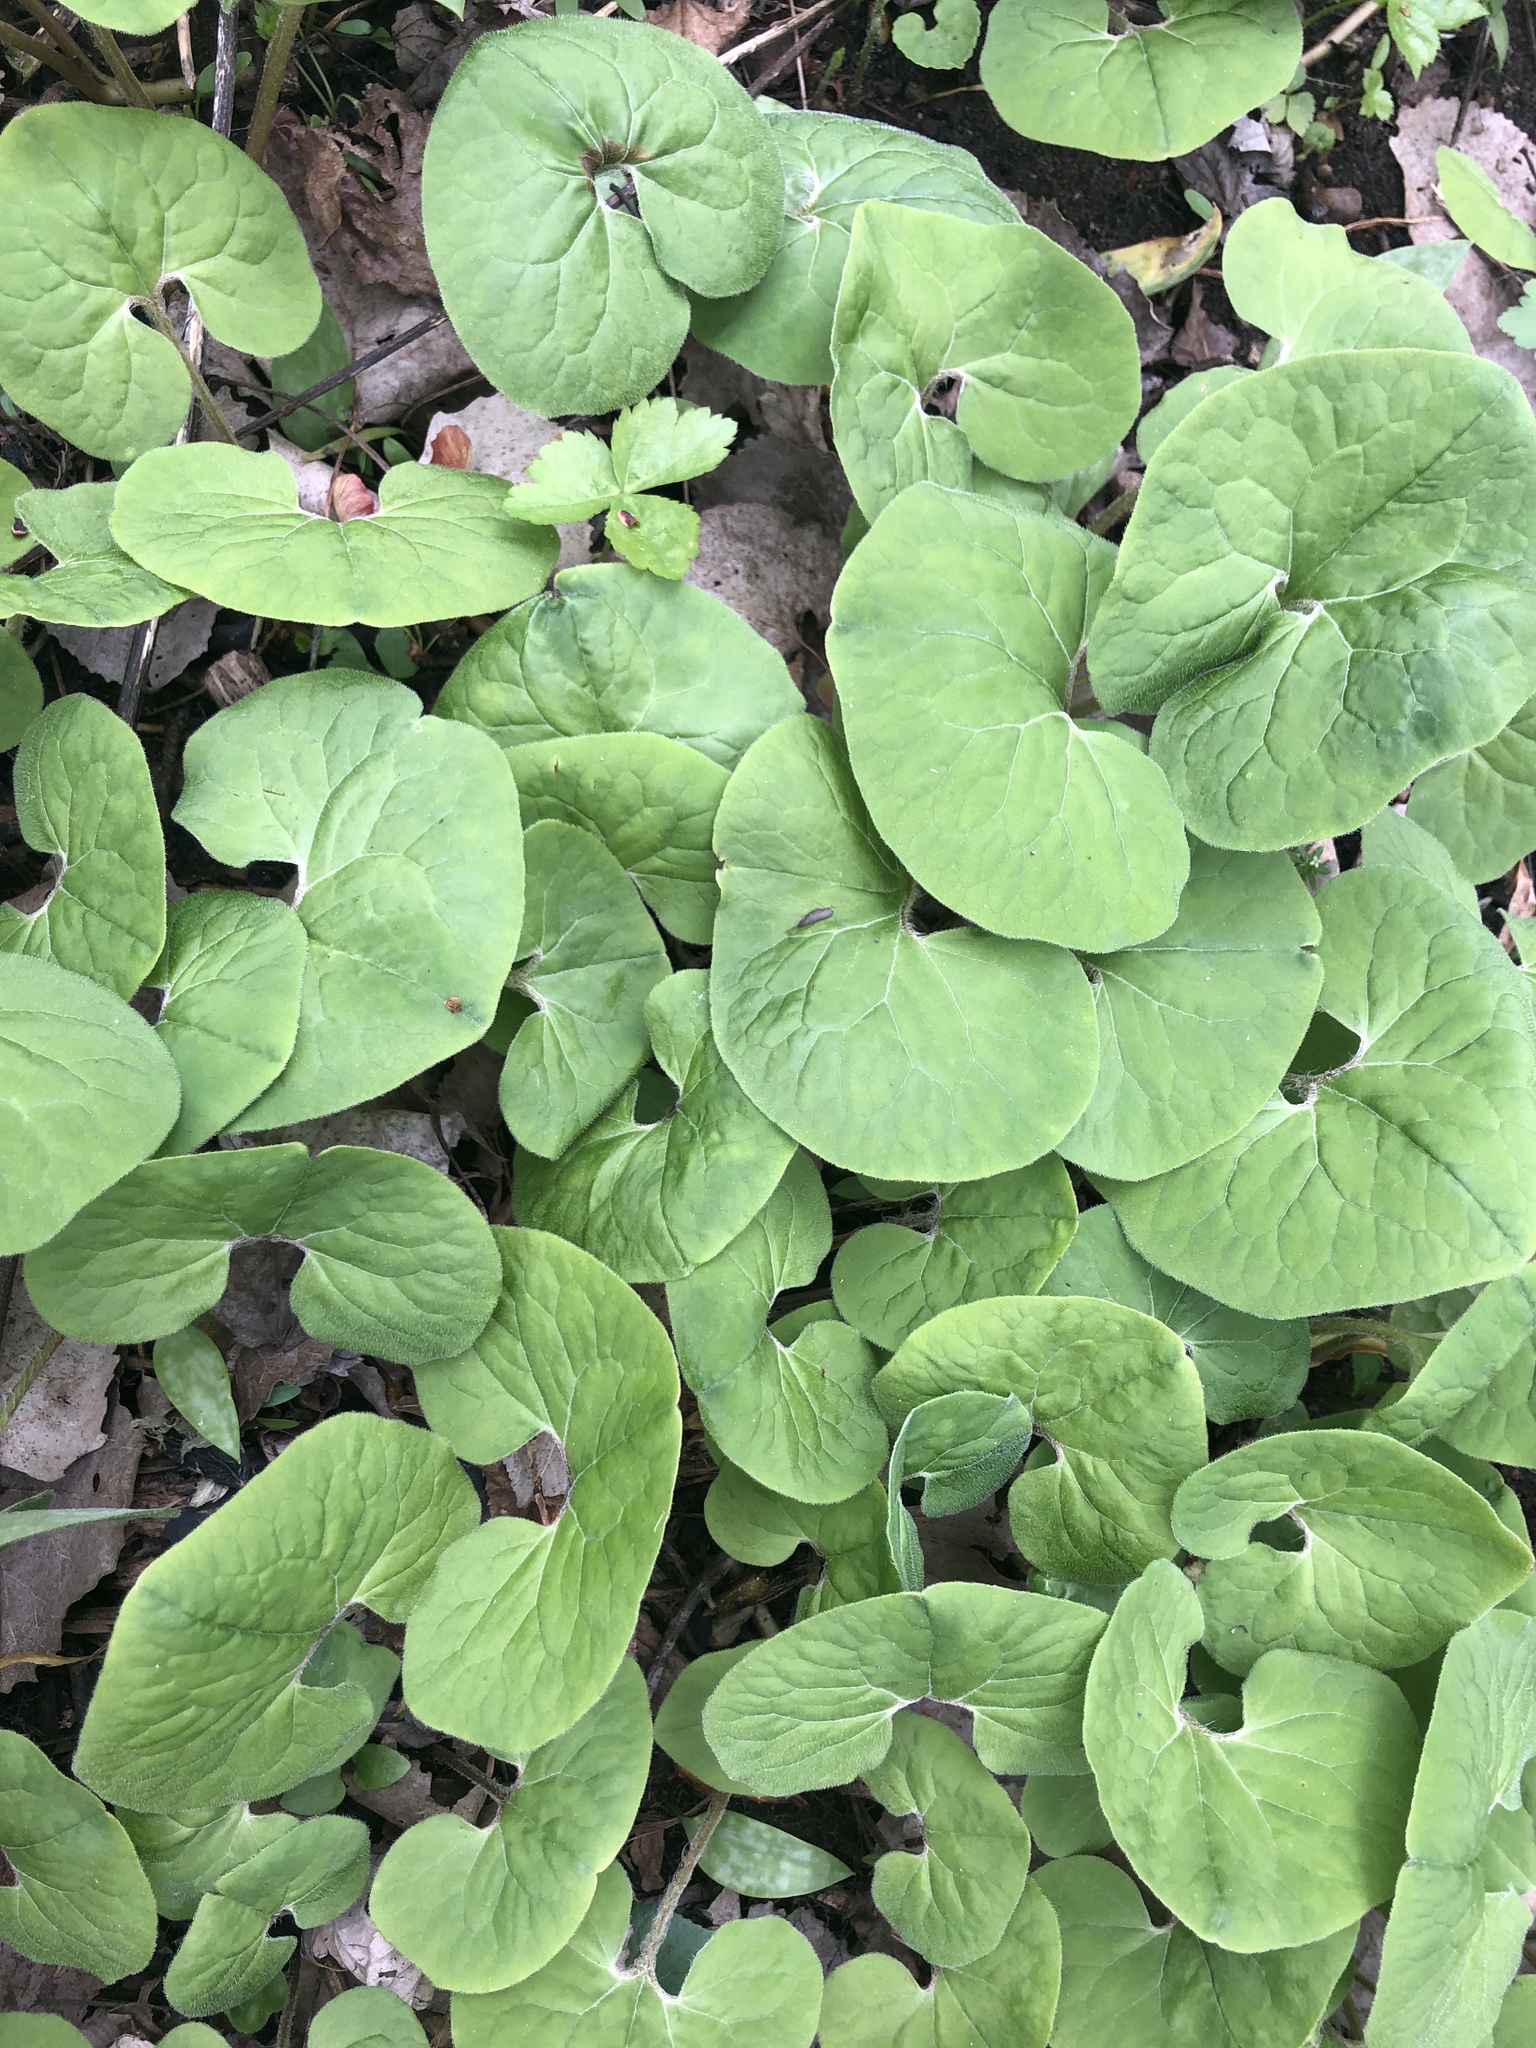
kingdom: Plantae
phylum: Tracheophyta
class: Magnoliopsida
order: Piperales
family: Aristolochiaceae
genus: Asarum
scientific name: Asarum canadense
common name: Wild ginger
